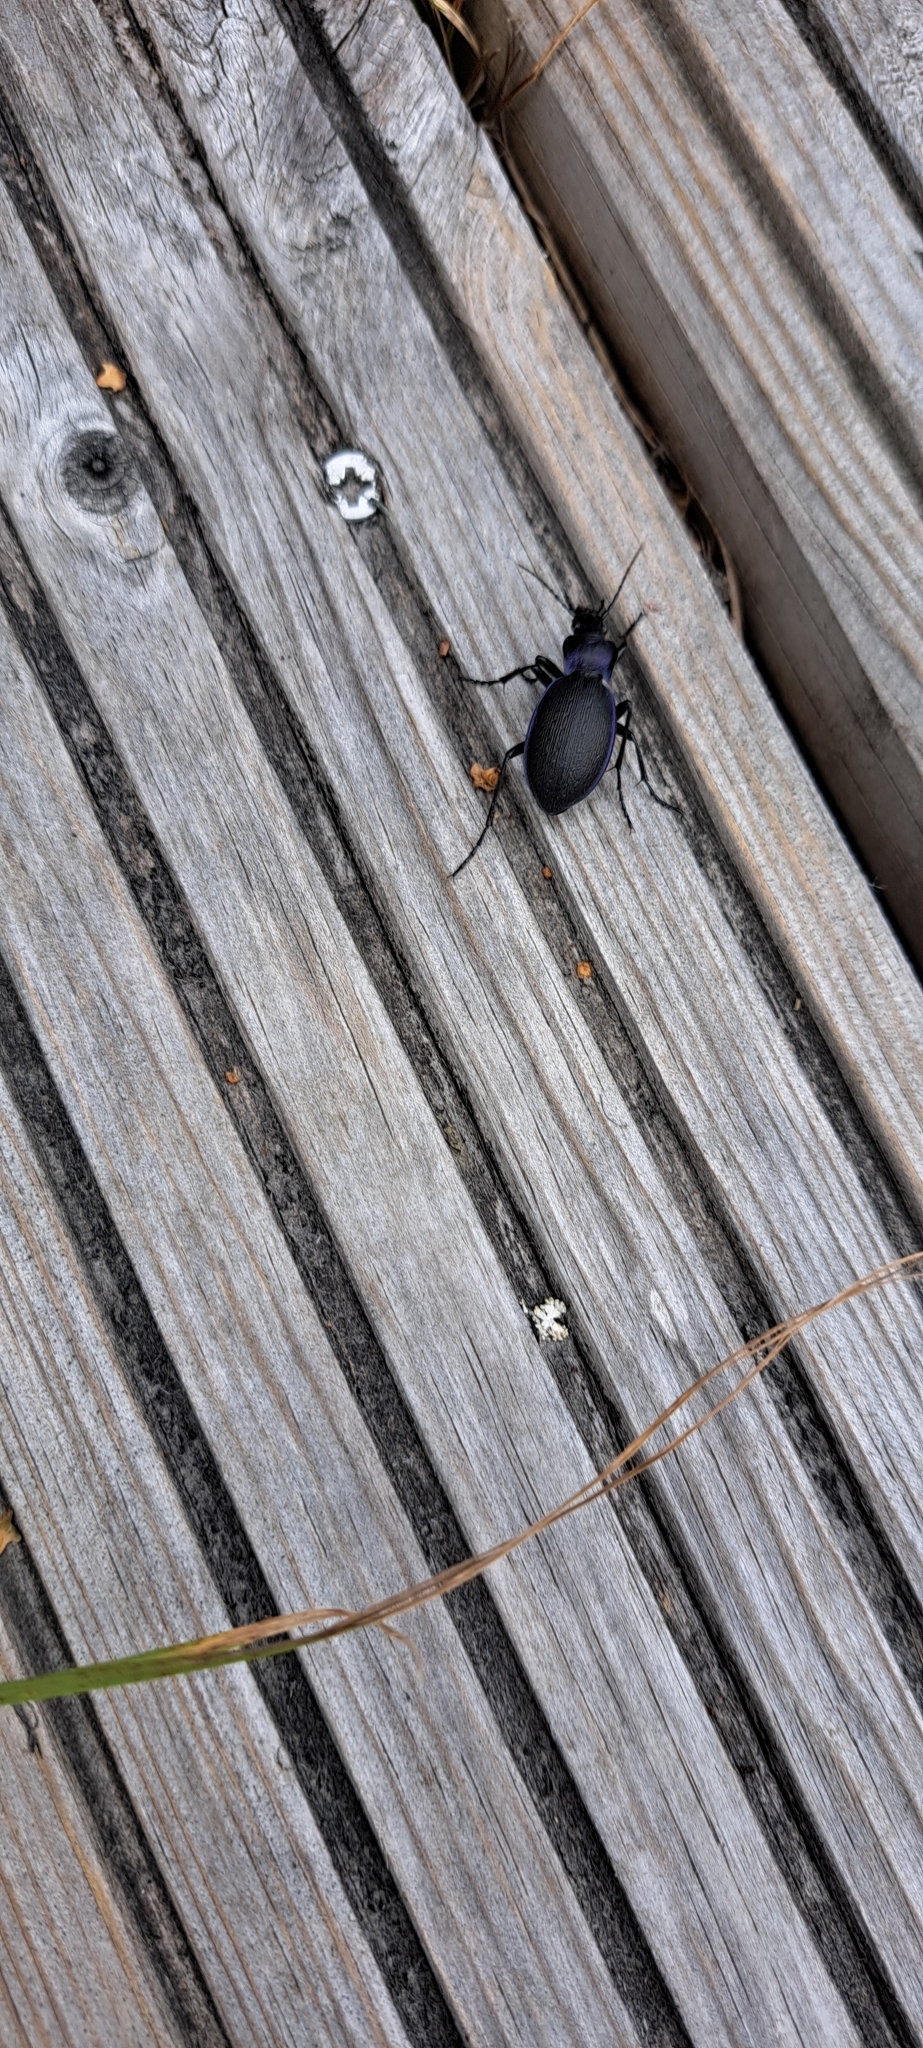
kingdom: Animalia
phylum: Arthropoda
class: Insecta
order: Coleoptera
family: Carabidae
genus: Carabus
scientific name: Carabus problematicus
